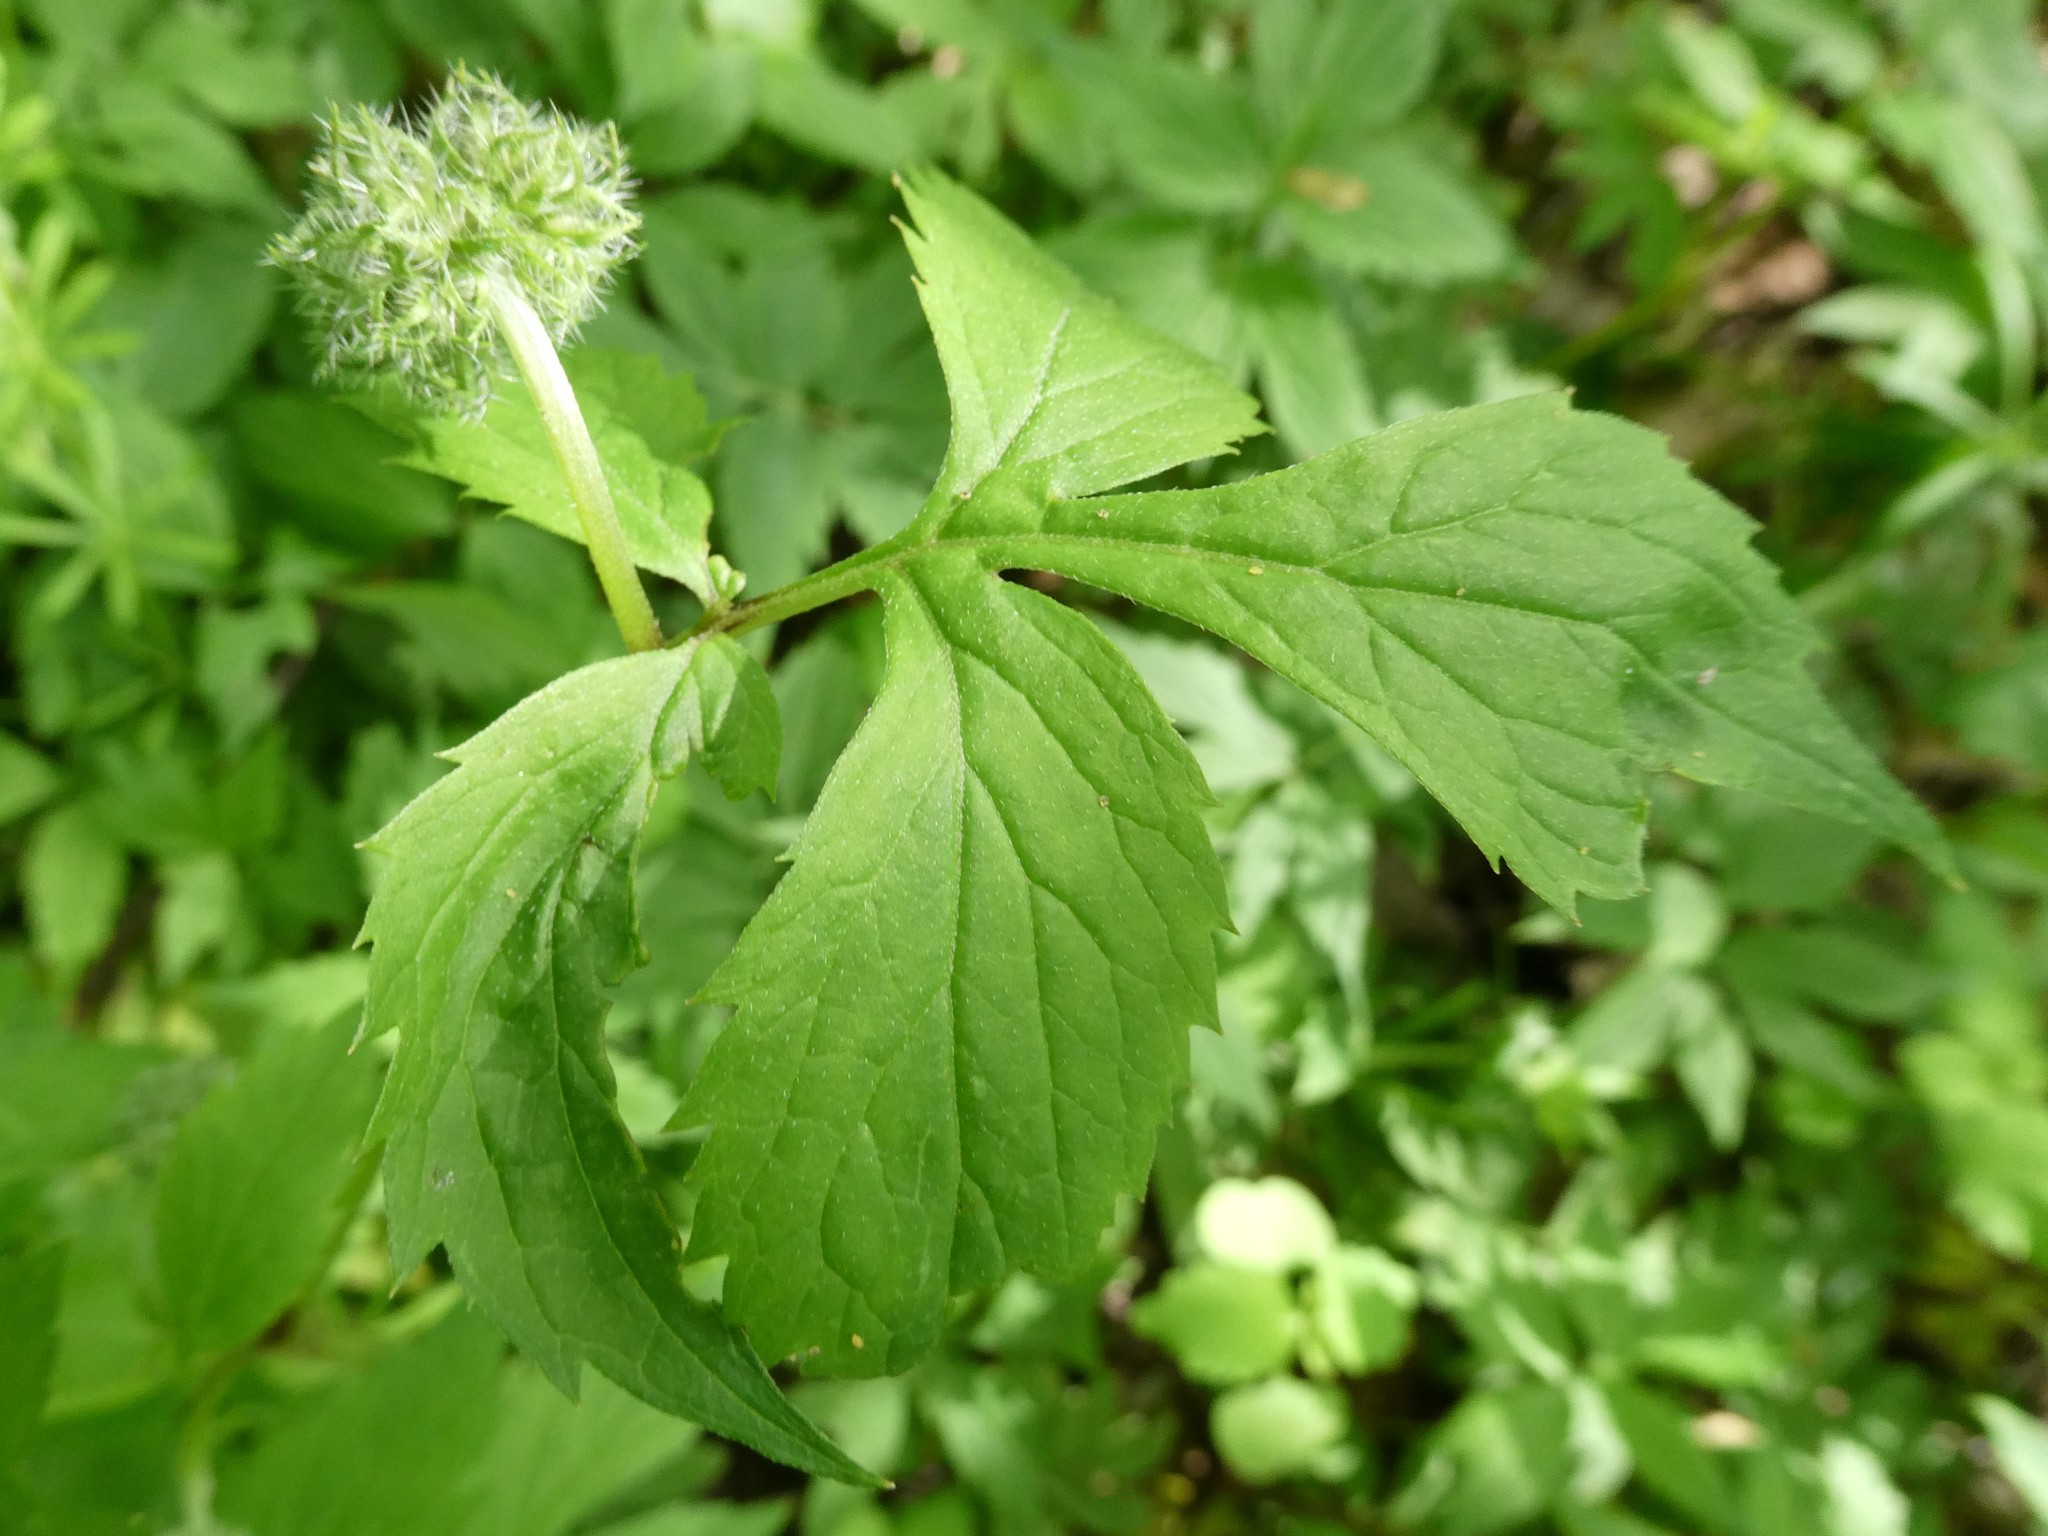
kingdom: Plantae
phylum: Tracheophyta
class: Magnoliopsida
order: Boraginales
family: Hydrophyllaceae
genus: Hydrophyllum
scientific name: Hydrophyllum virginianum
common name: Virginia waterleaf
